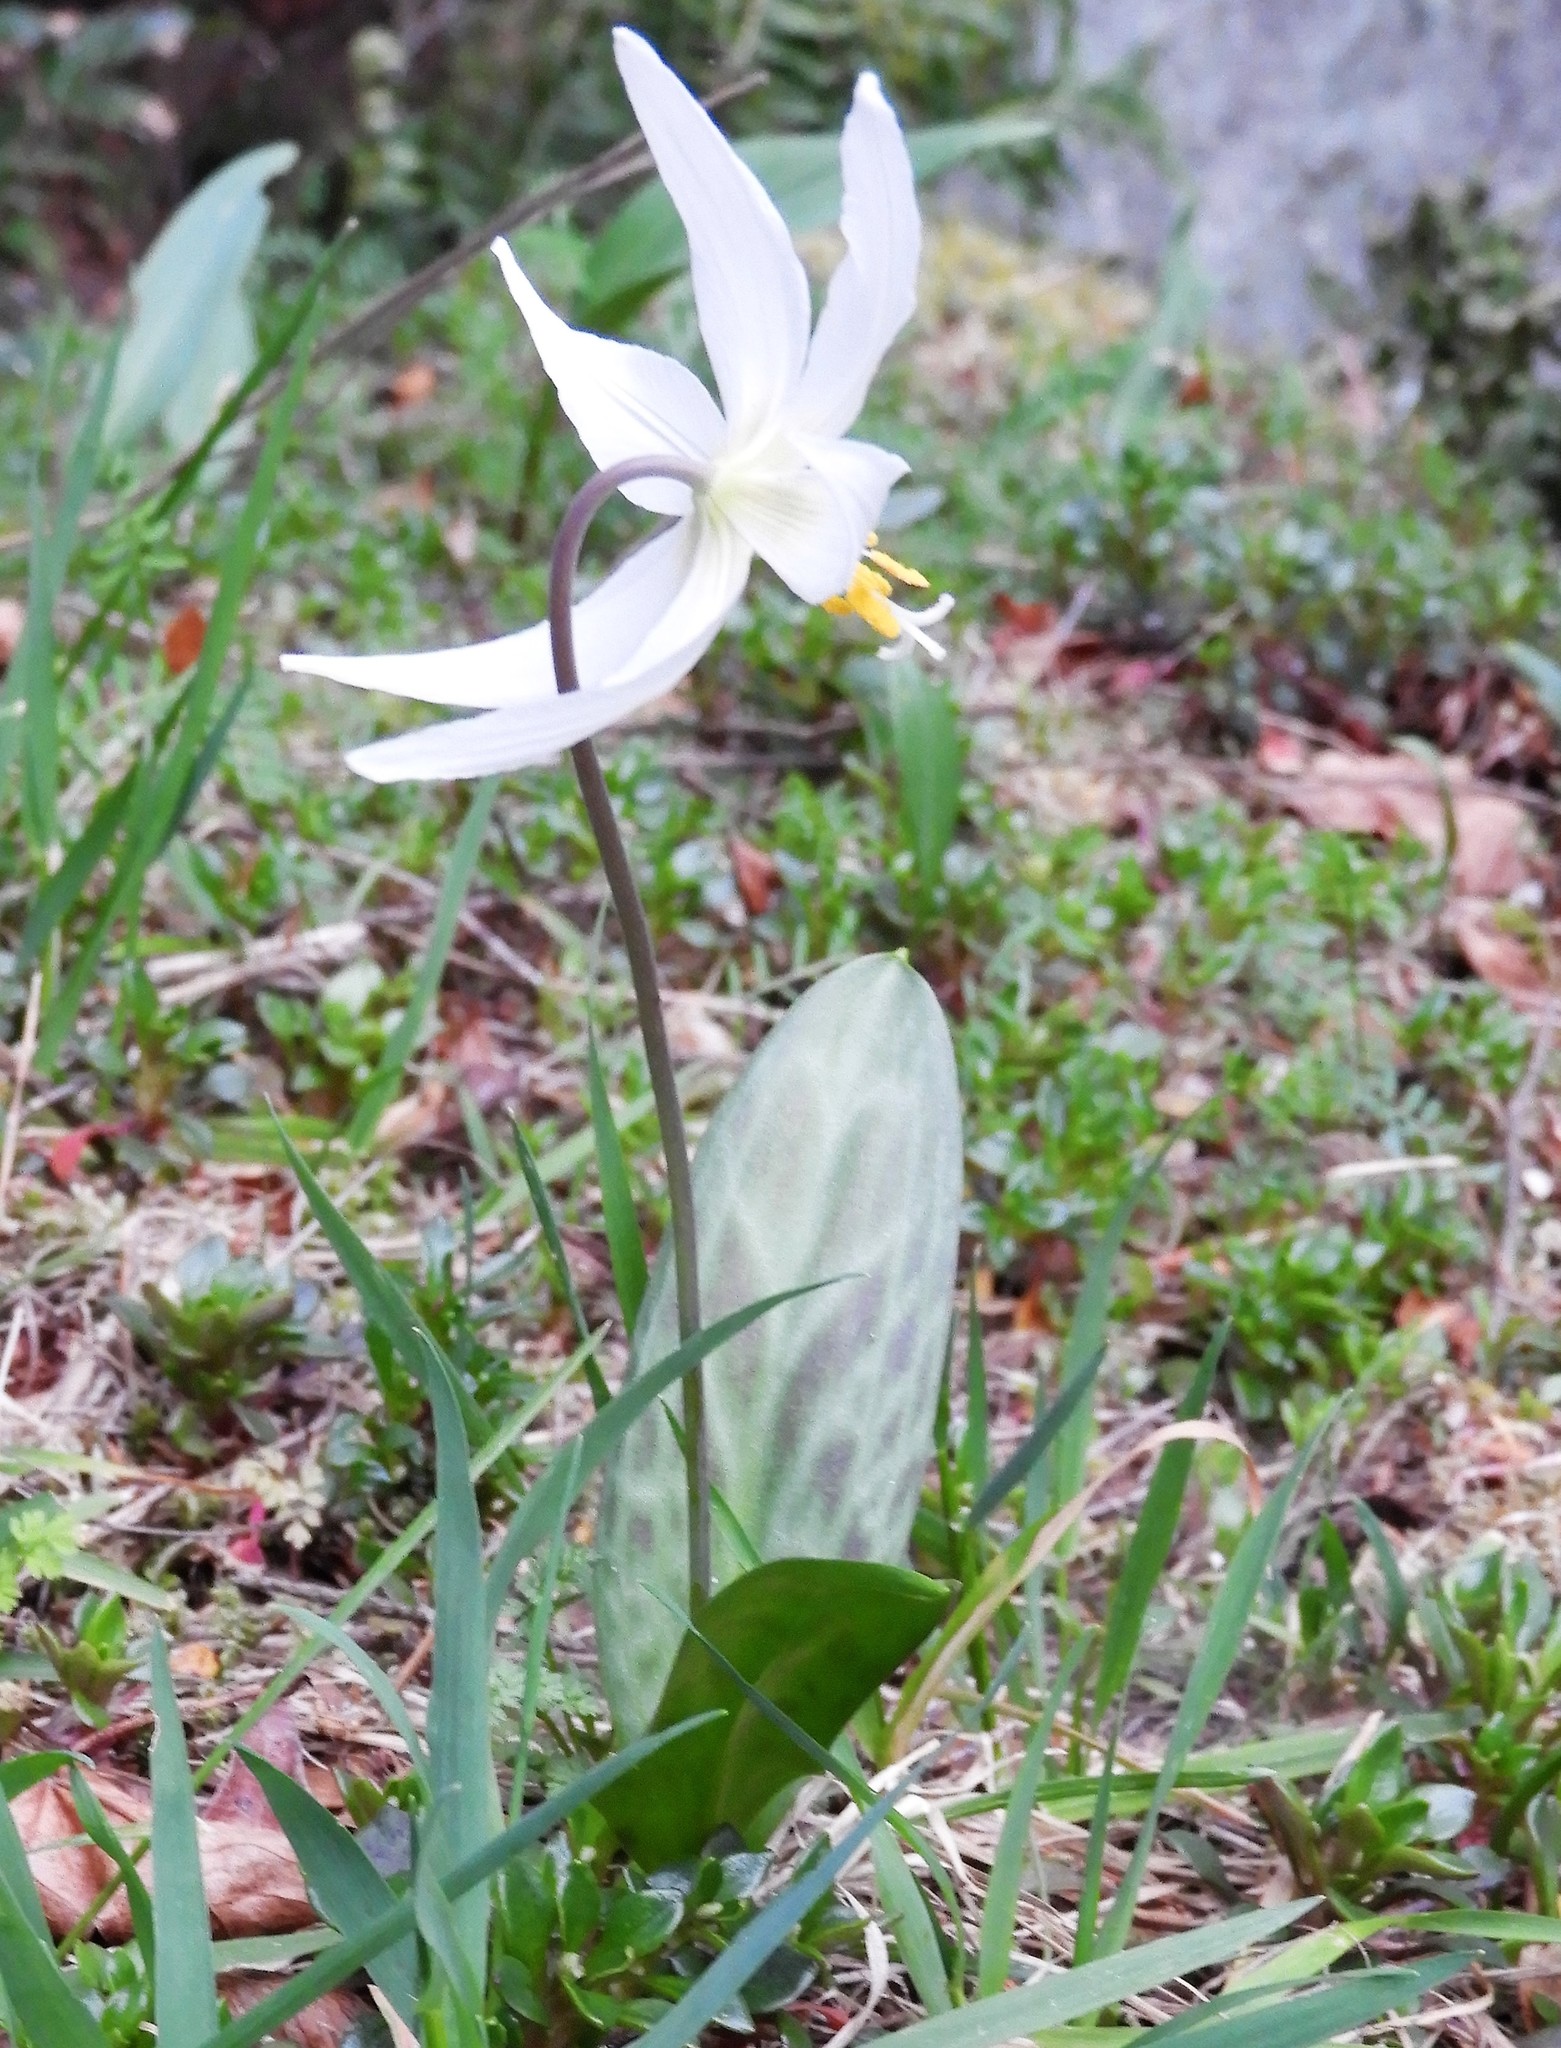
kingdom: Plantae
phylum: Tracheophyta
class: Liliopsida
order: Liliales
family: Liliaceae
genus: Erythronium
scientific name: Erythronium oregonum
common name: Giant adder's-tongue
